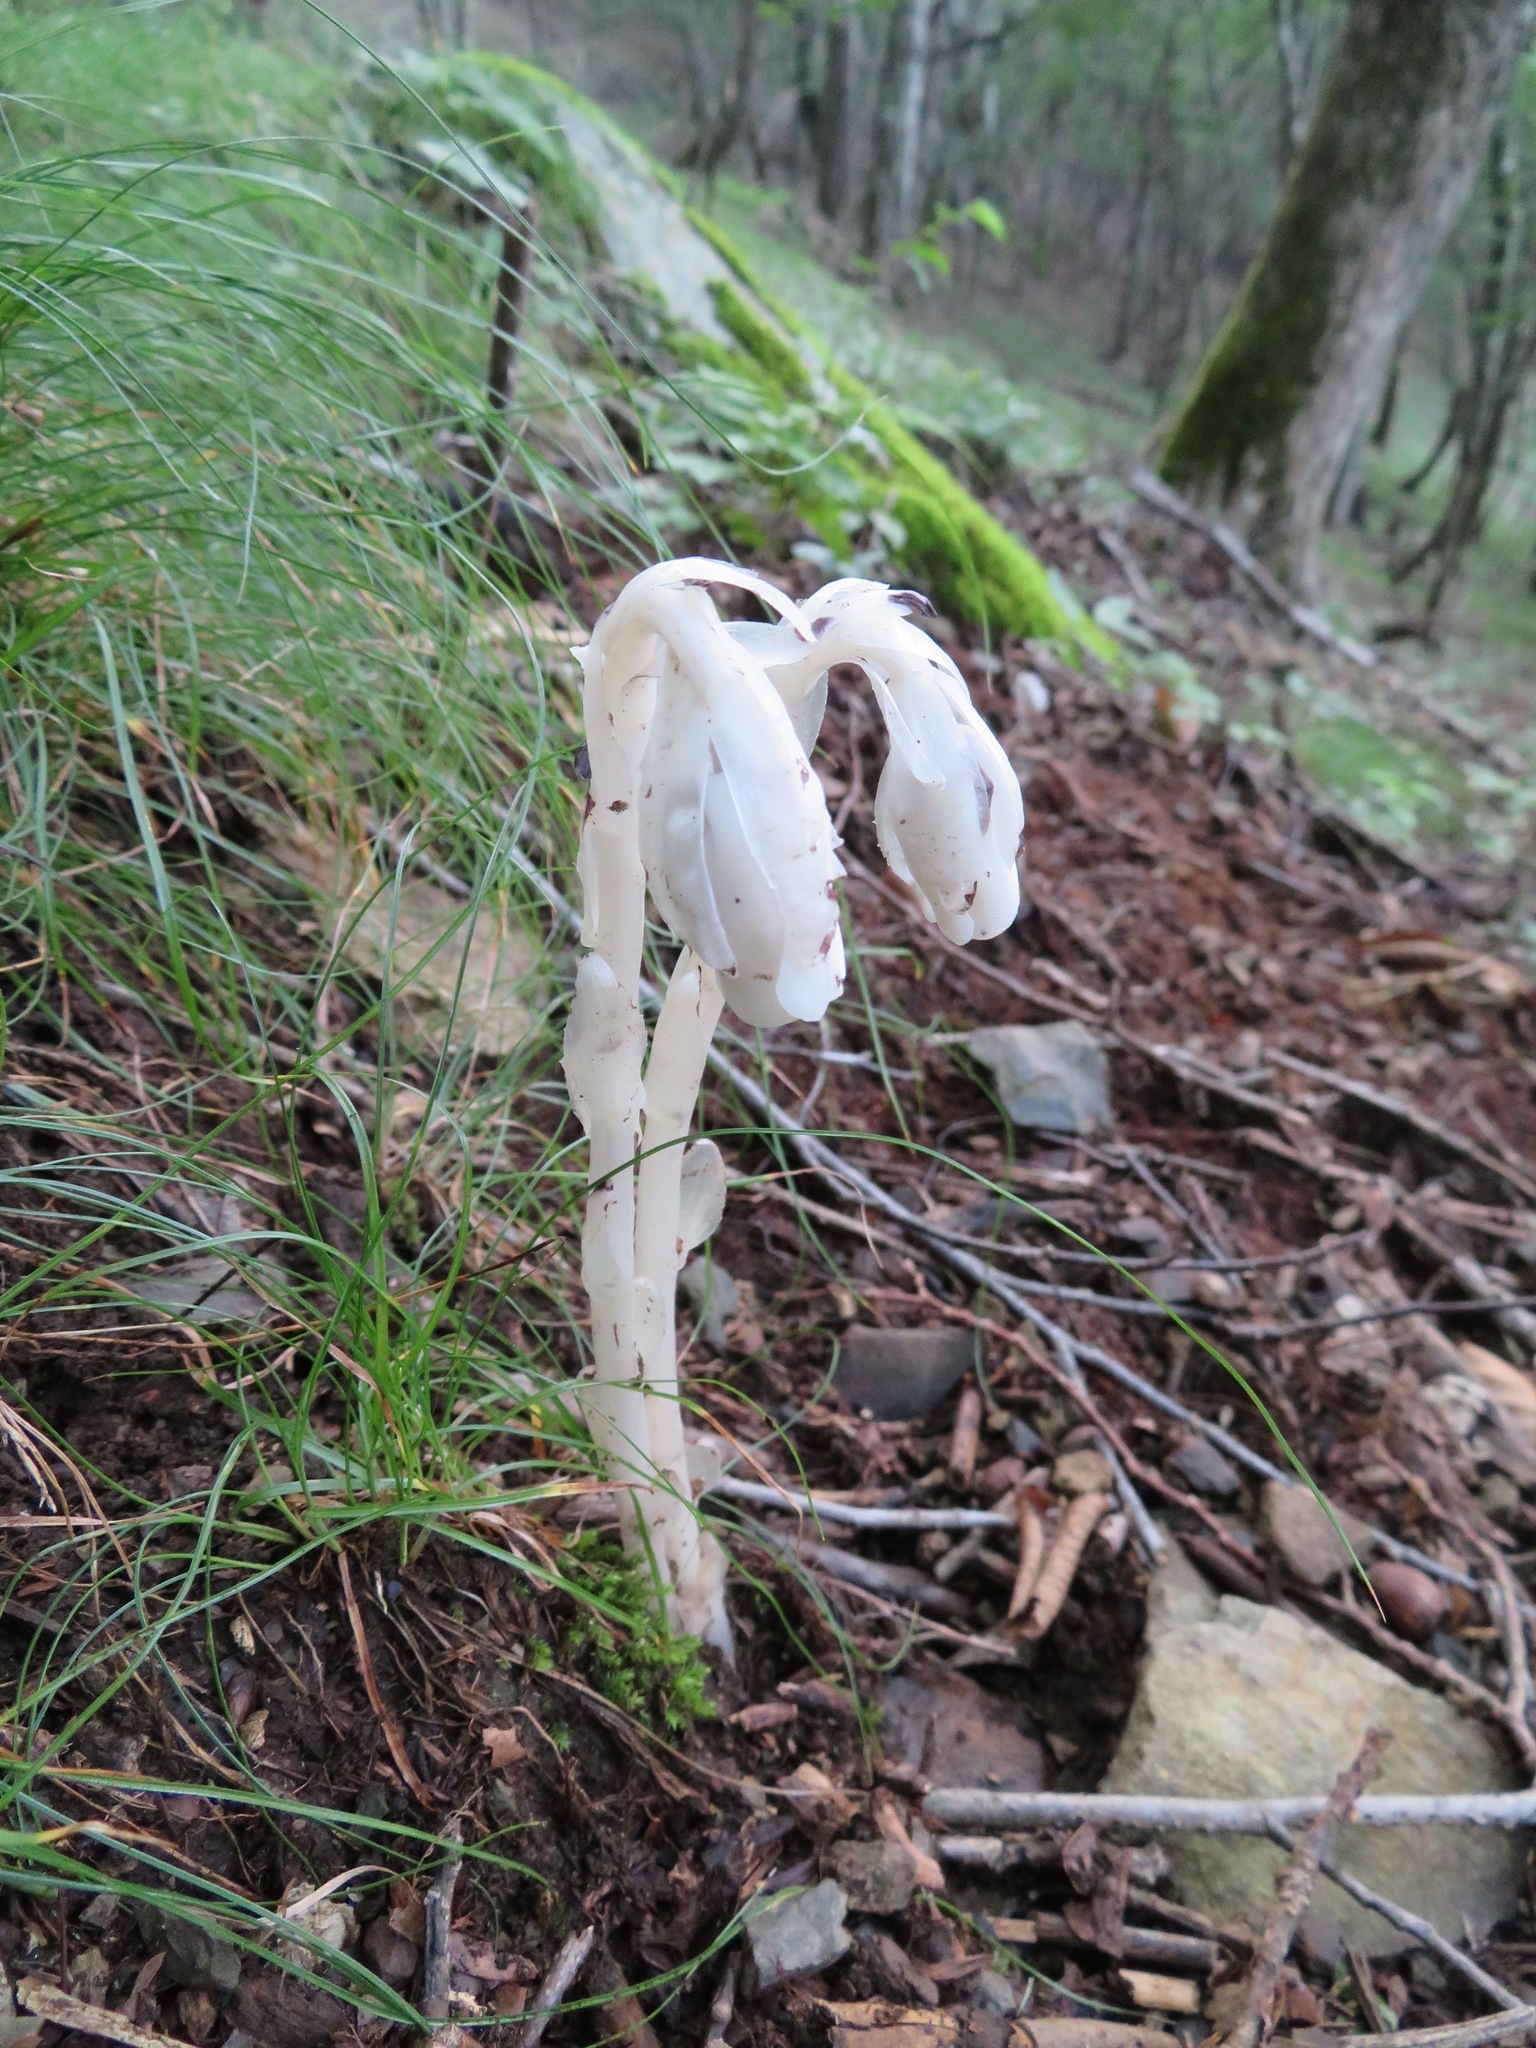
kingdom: Plantae
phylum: Tracheophyta
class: Magnoliopsida
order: Ericales
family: Ericaceae
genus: Monotropastrum
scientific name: Monotropastrum humile
